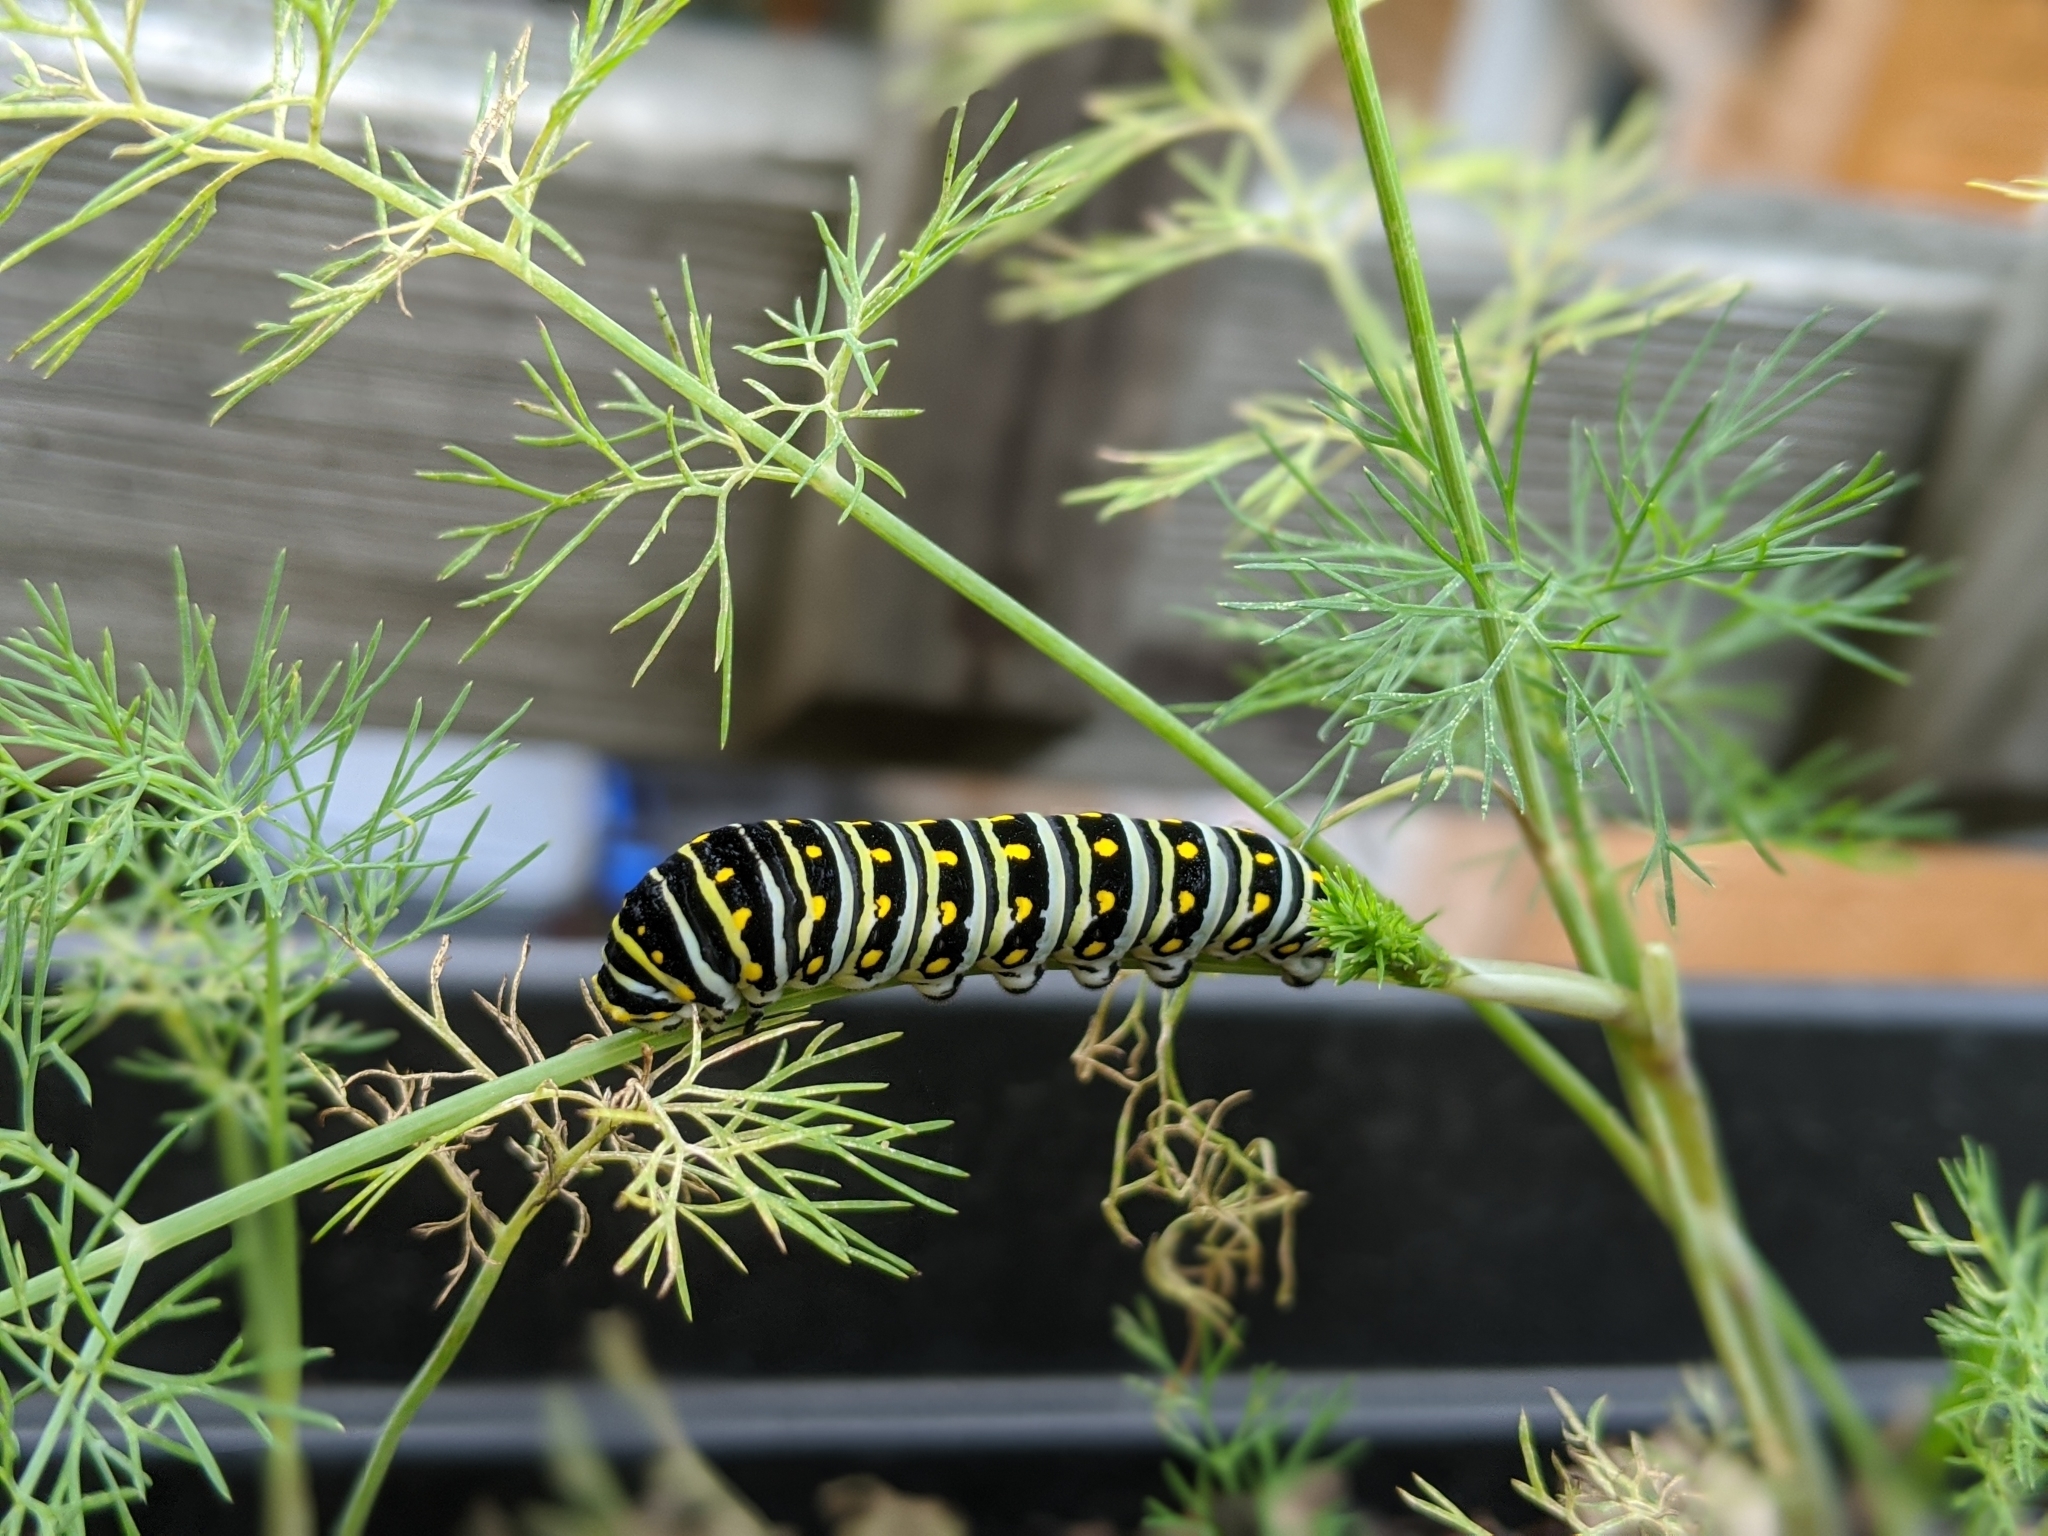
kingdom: Animalia
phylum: Arthropoda
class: Insecta
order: Lepidoptera
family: Papilionidae
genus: Papilio
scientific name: Papilio polyxenes
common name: Black swallowtail
